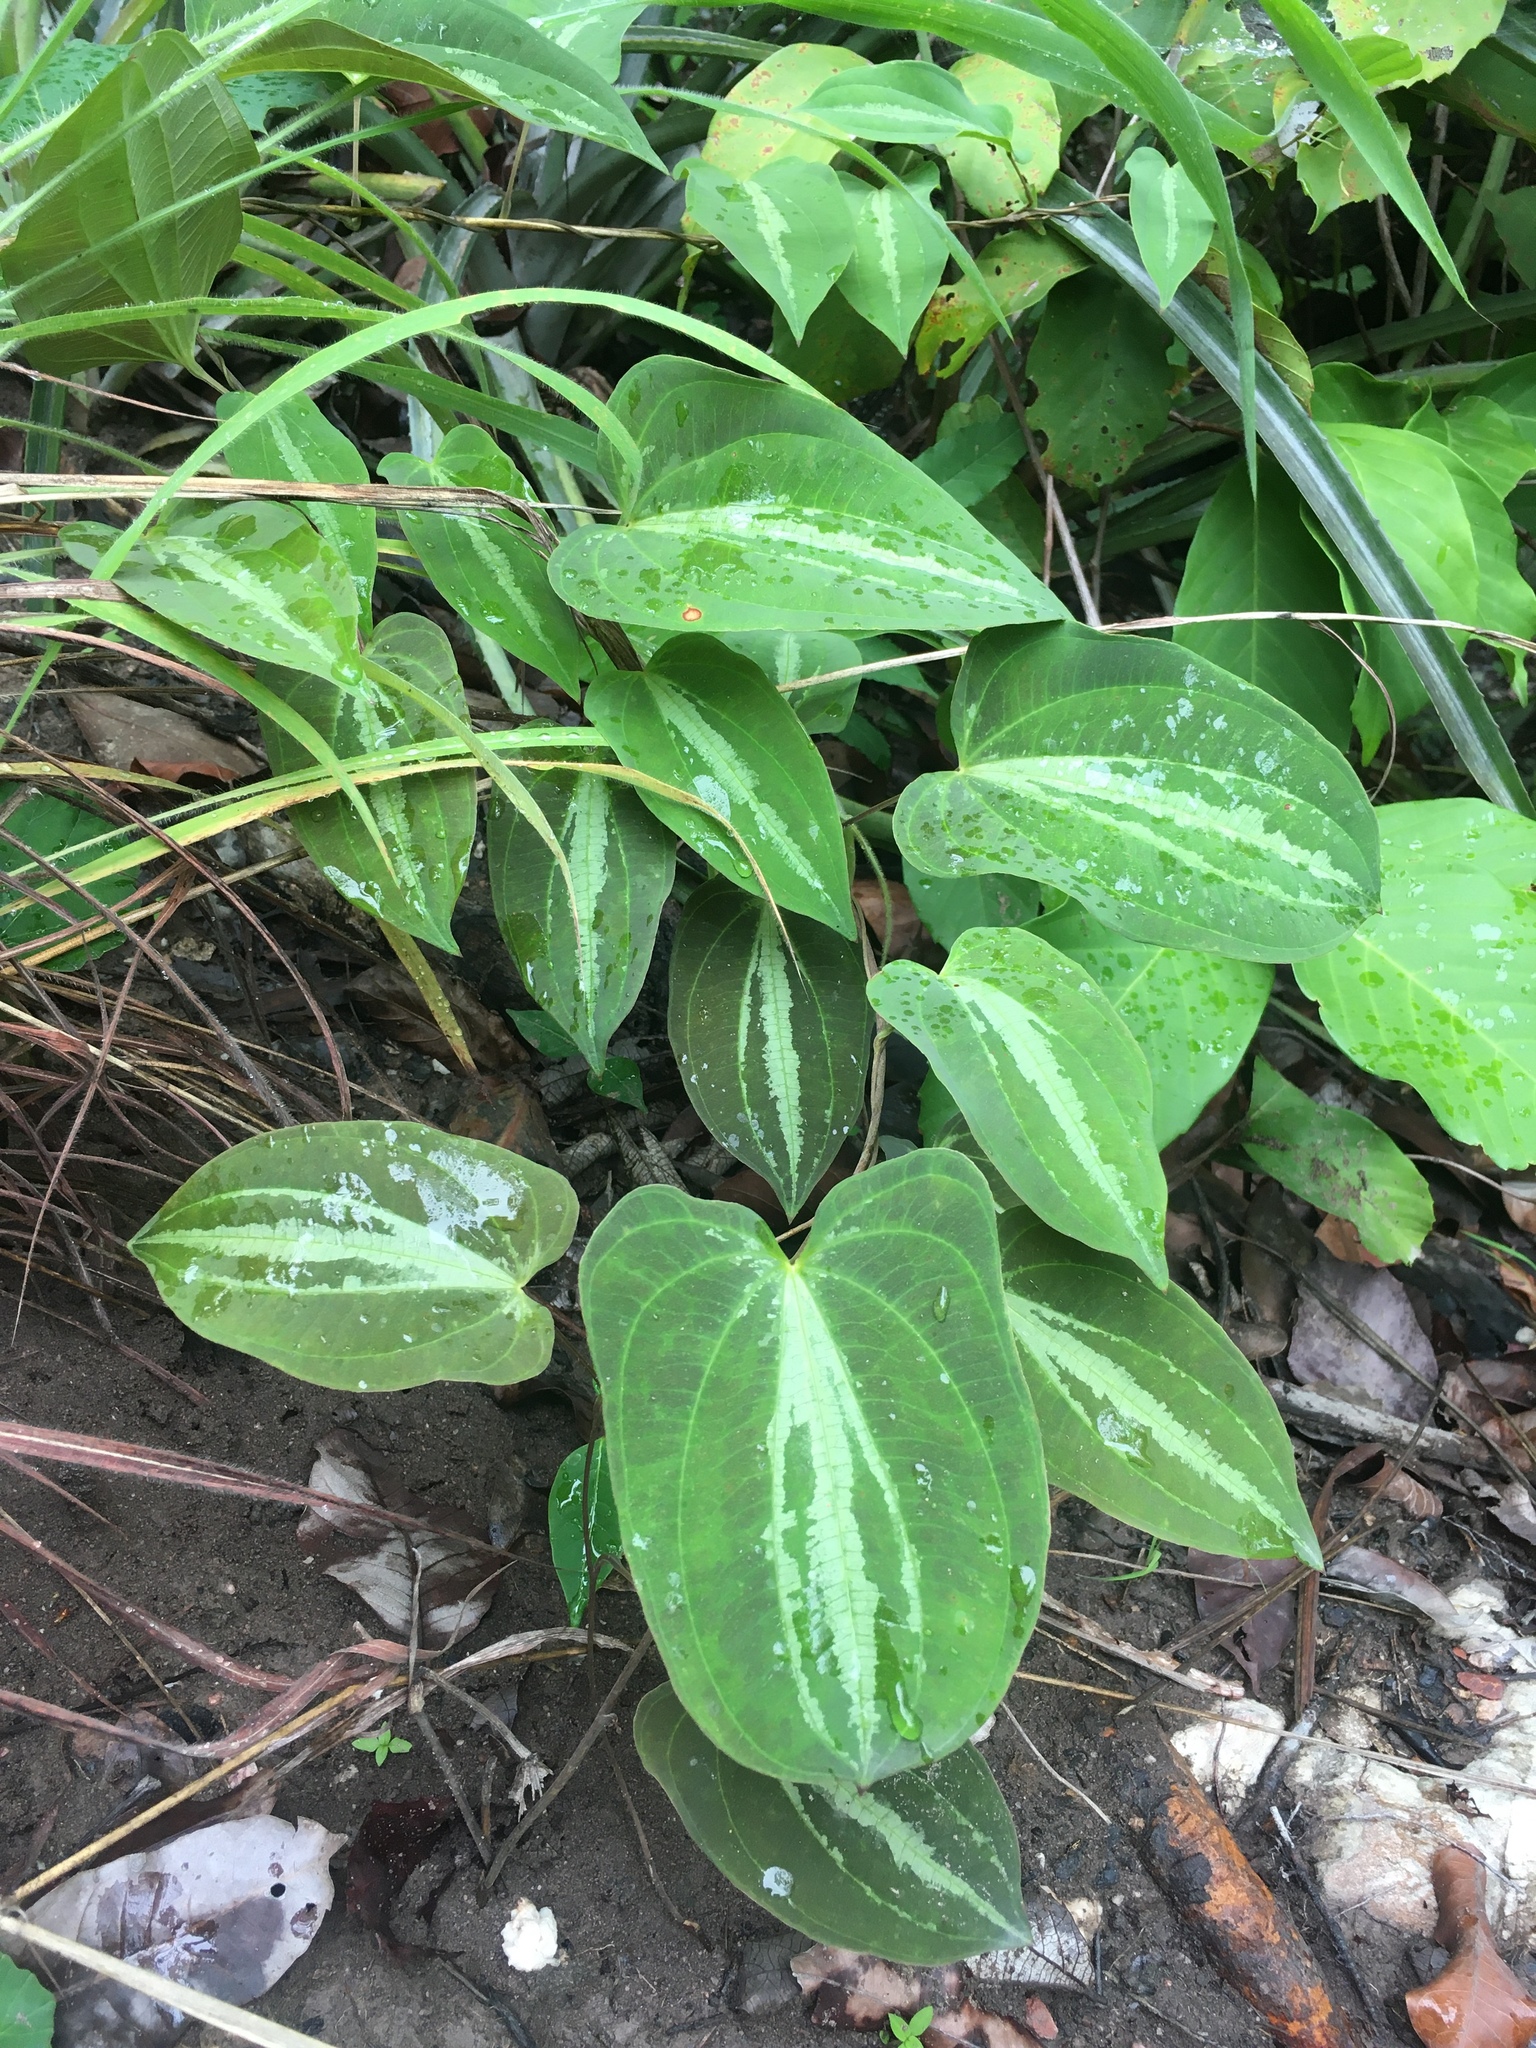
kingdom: Plantae
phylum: Tracheophyta
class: Liliopsida
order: Dioscoreales
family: Dioscoreaceae
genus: Dioscorea
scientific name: Dioscorea dodecaneura
